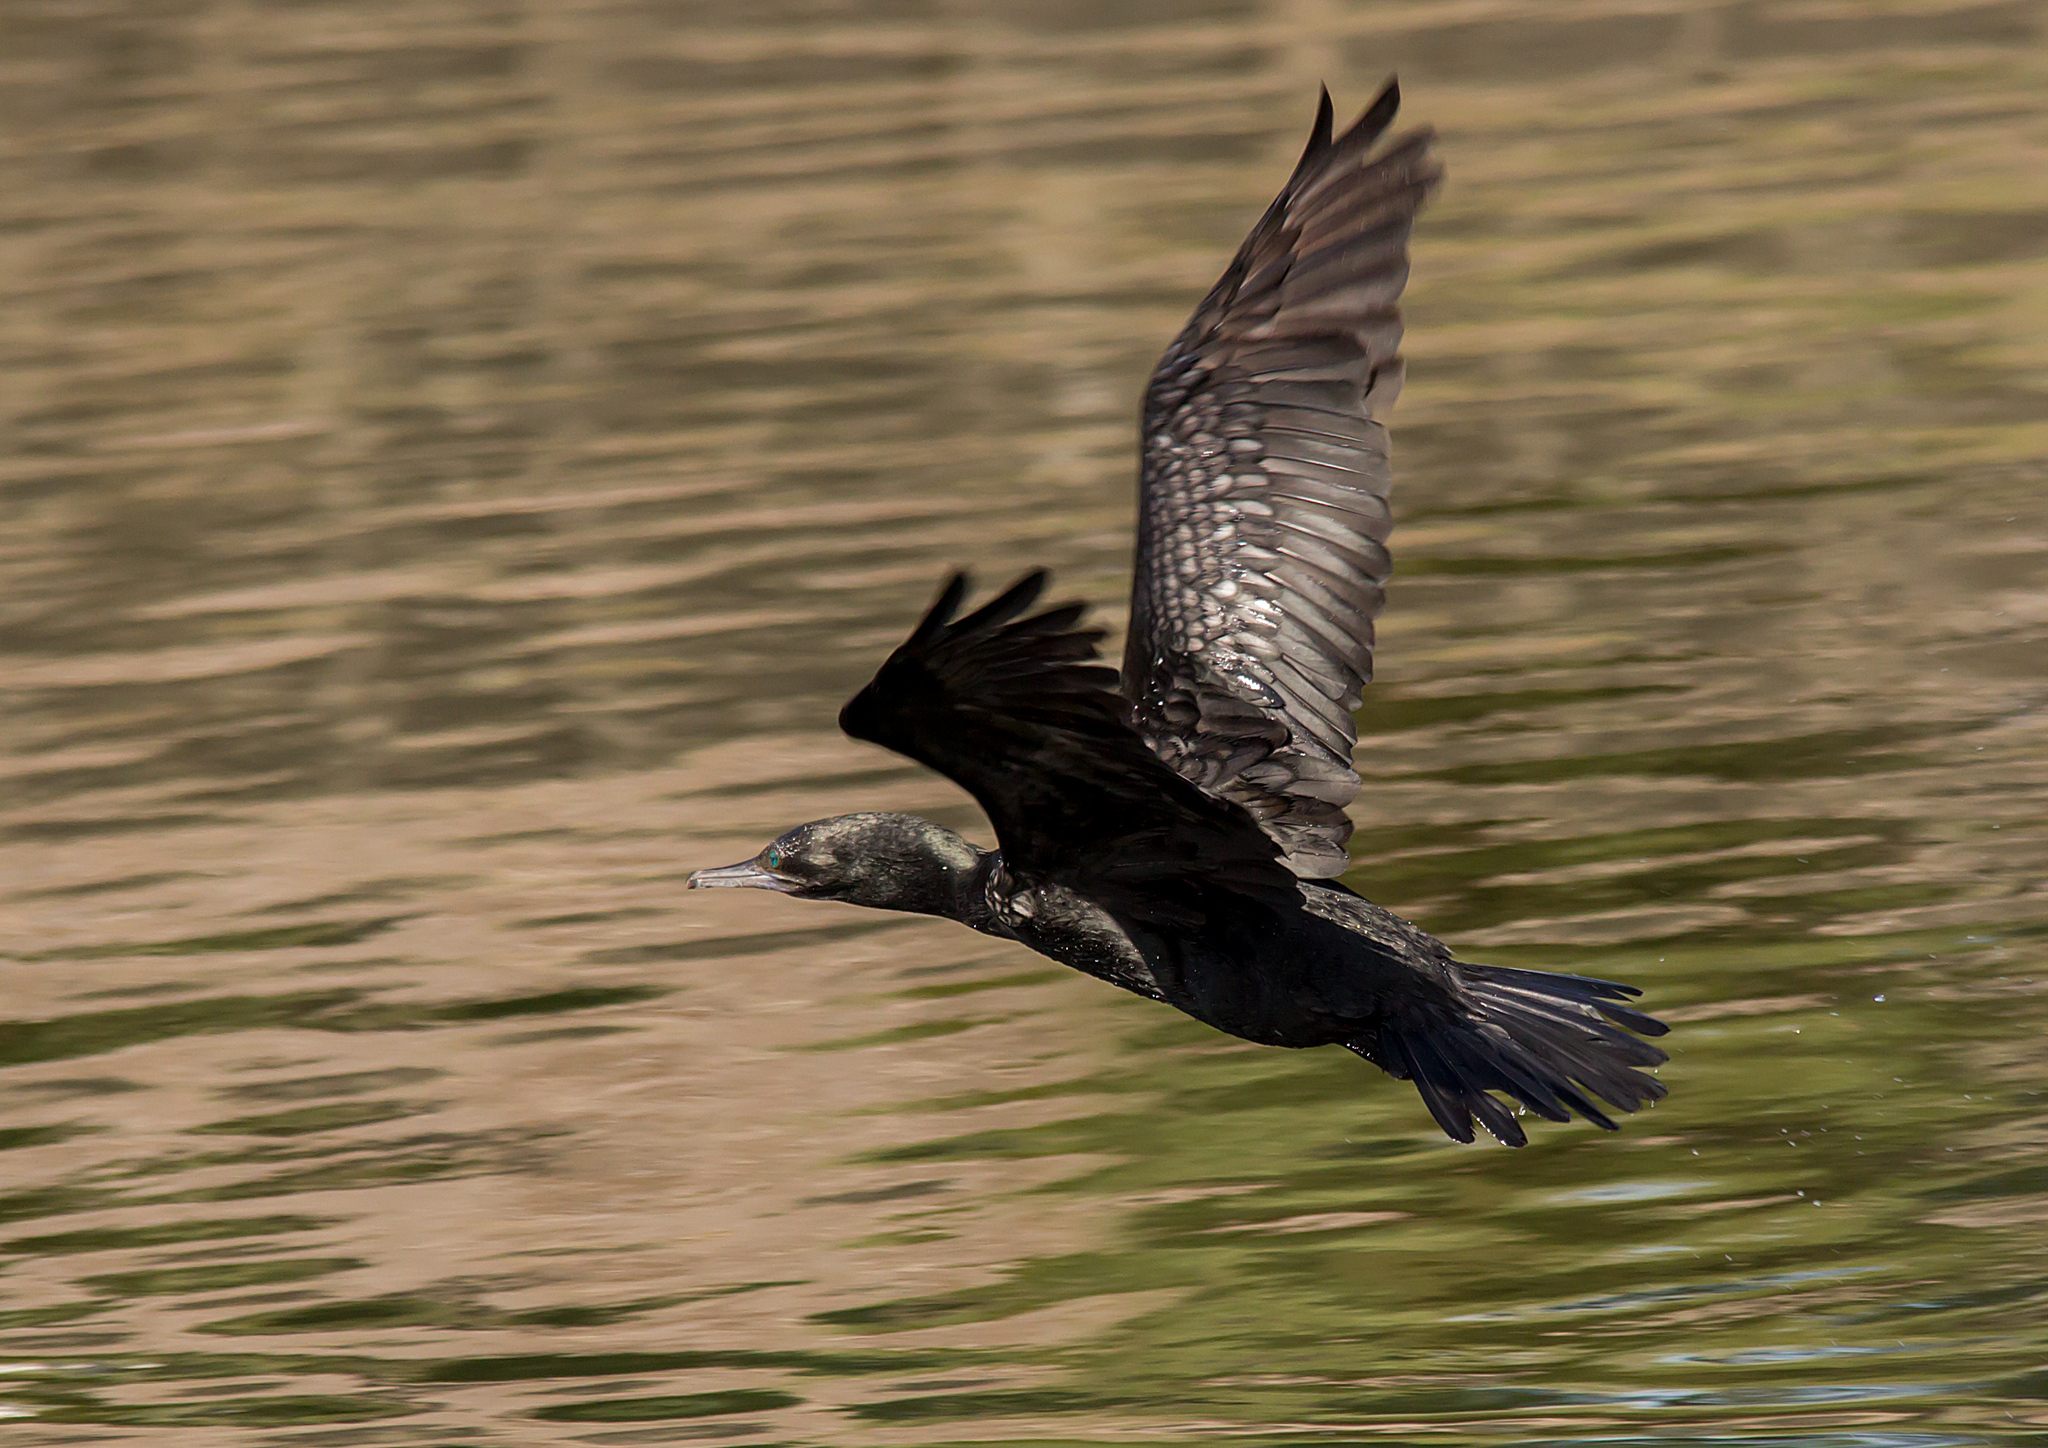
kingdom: Animalia
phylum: Chordata
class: Aves
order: Suliformes
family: Phalacrocoracidae
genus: Phalacrocorax
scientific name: Phalacrocorax sulcirostris
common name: Little black cormorant
